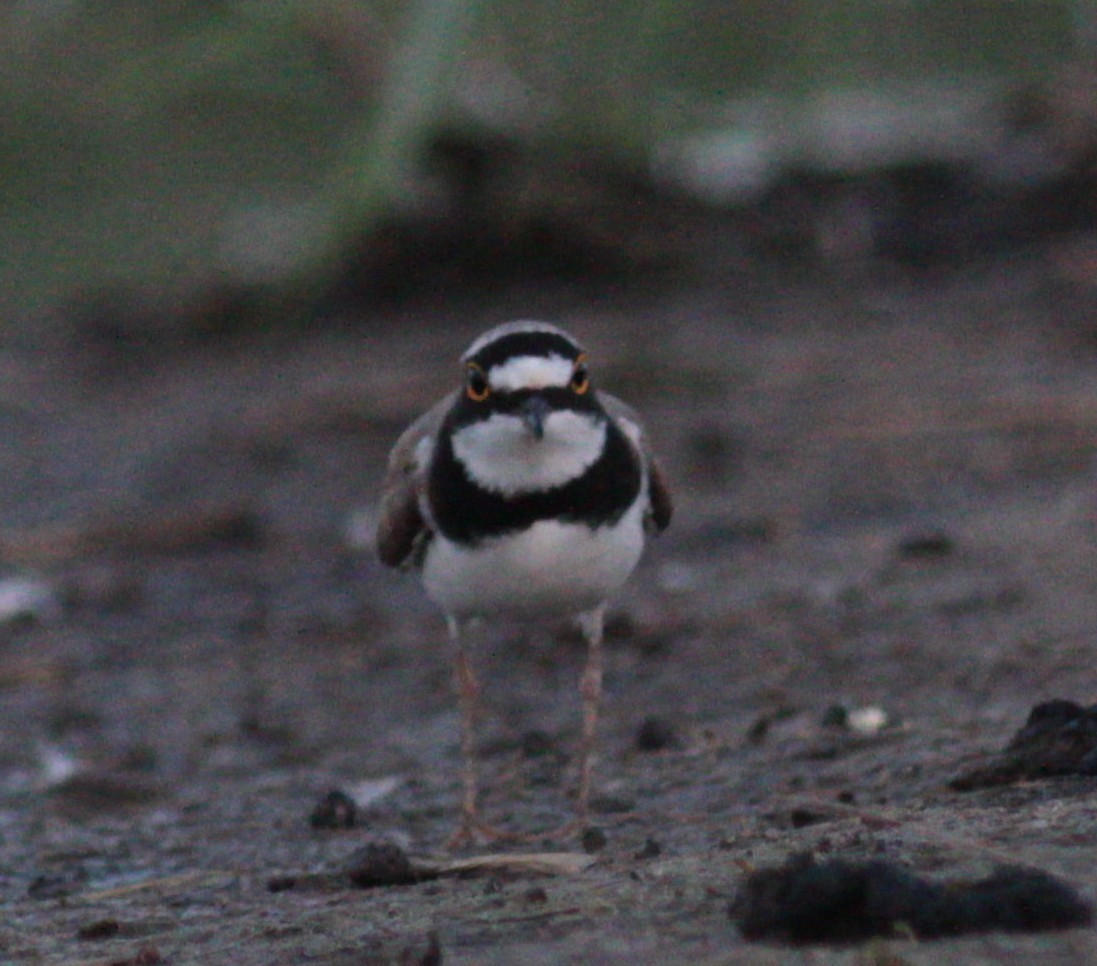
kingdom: Animalia
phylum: Chordata
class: Aves
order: Charadriiformes
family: Charadriidae
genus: Charadrius
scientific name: Charadrius dubius
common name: Little ringed plover
